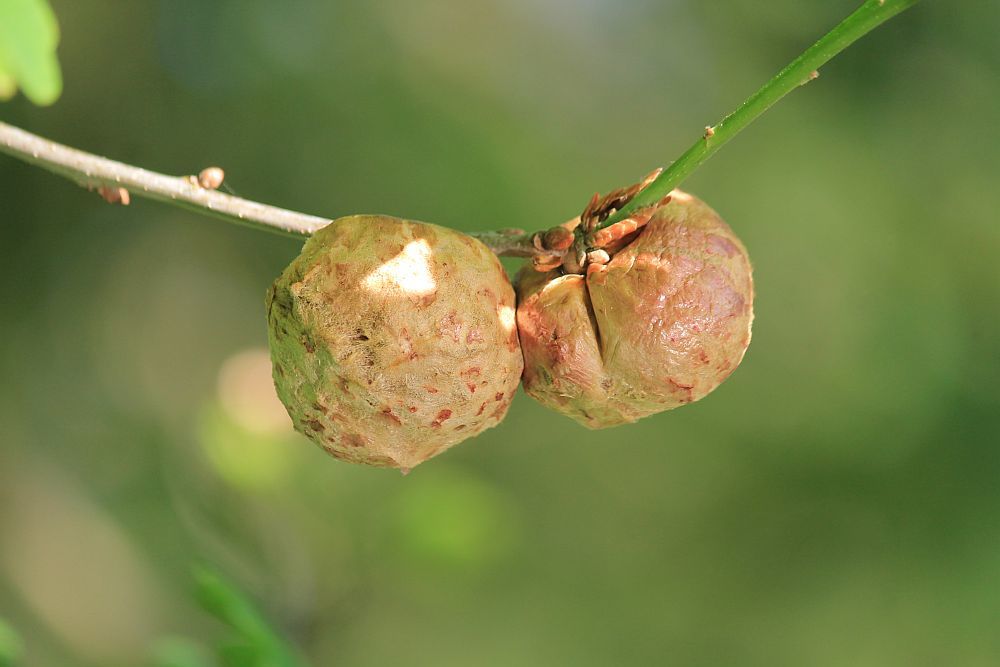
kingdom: Animalia
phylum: Arthropoda
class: Insecta
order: Hymenoptera
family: Cynipidae
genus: Biorhiza
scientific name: Biorhiza pallida
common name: Oak apple
